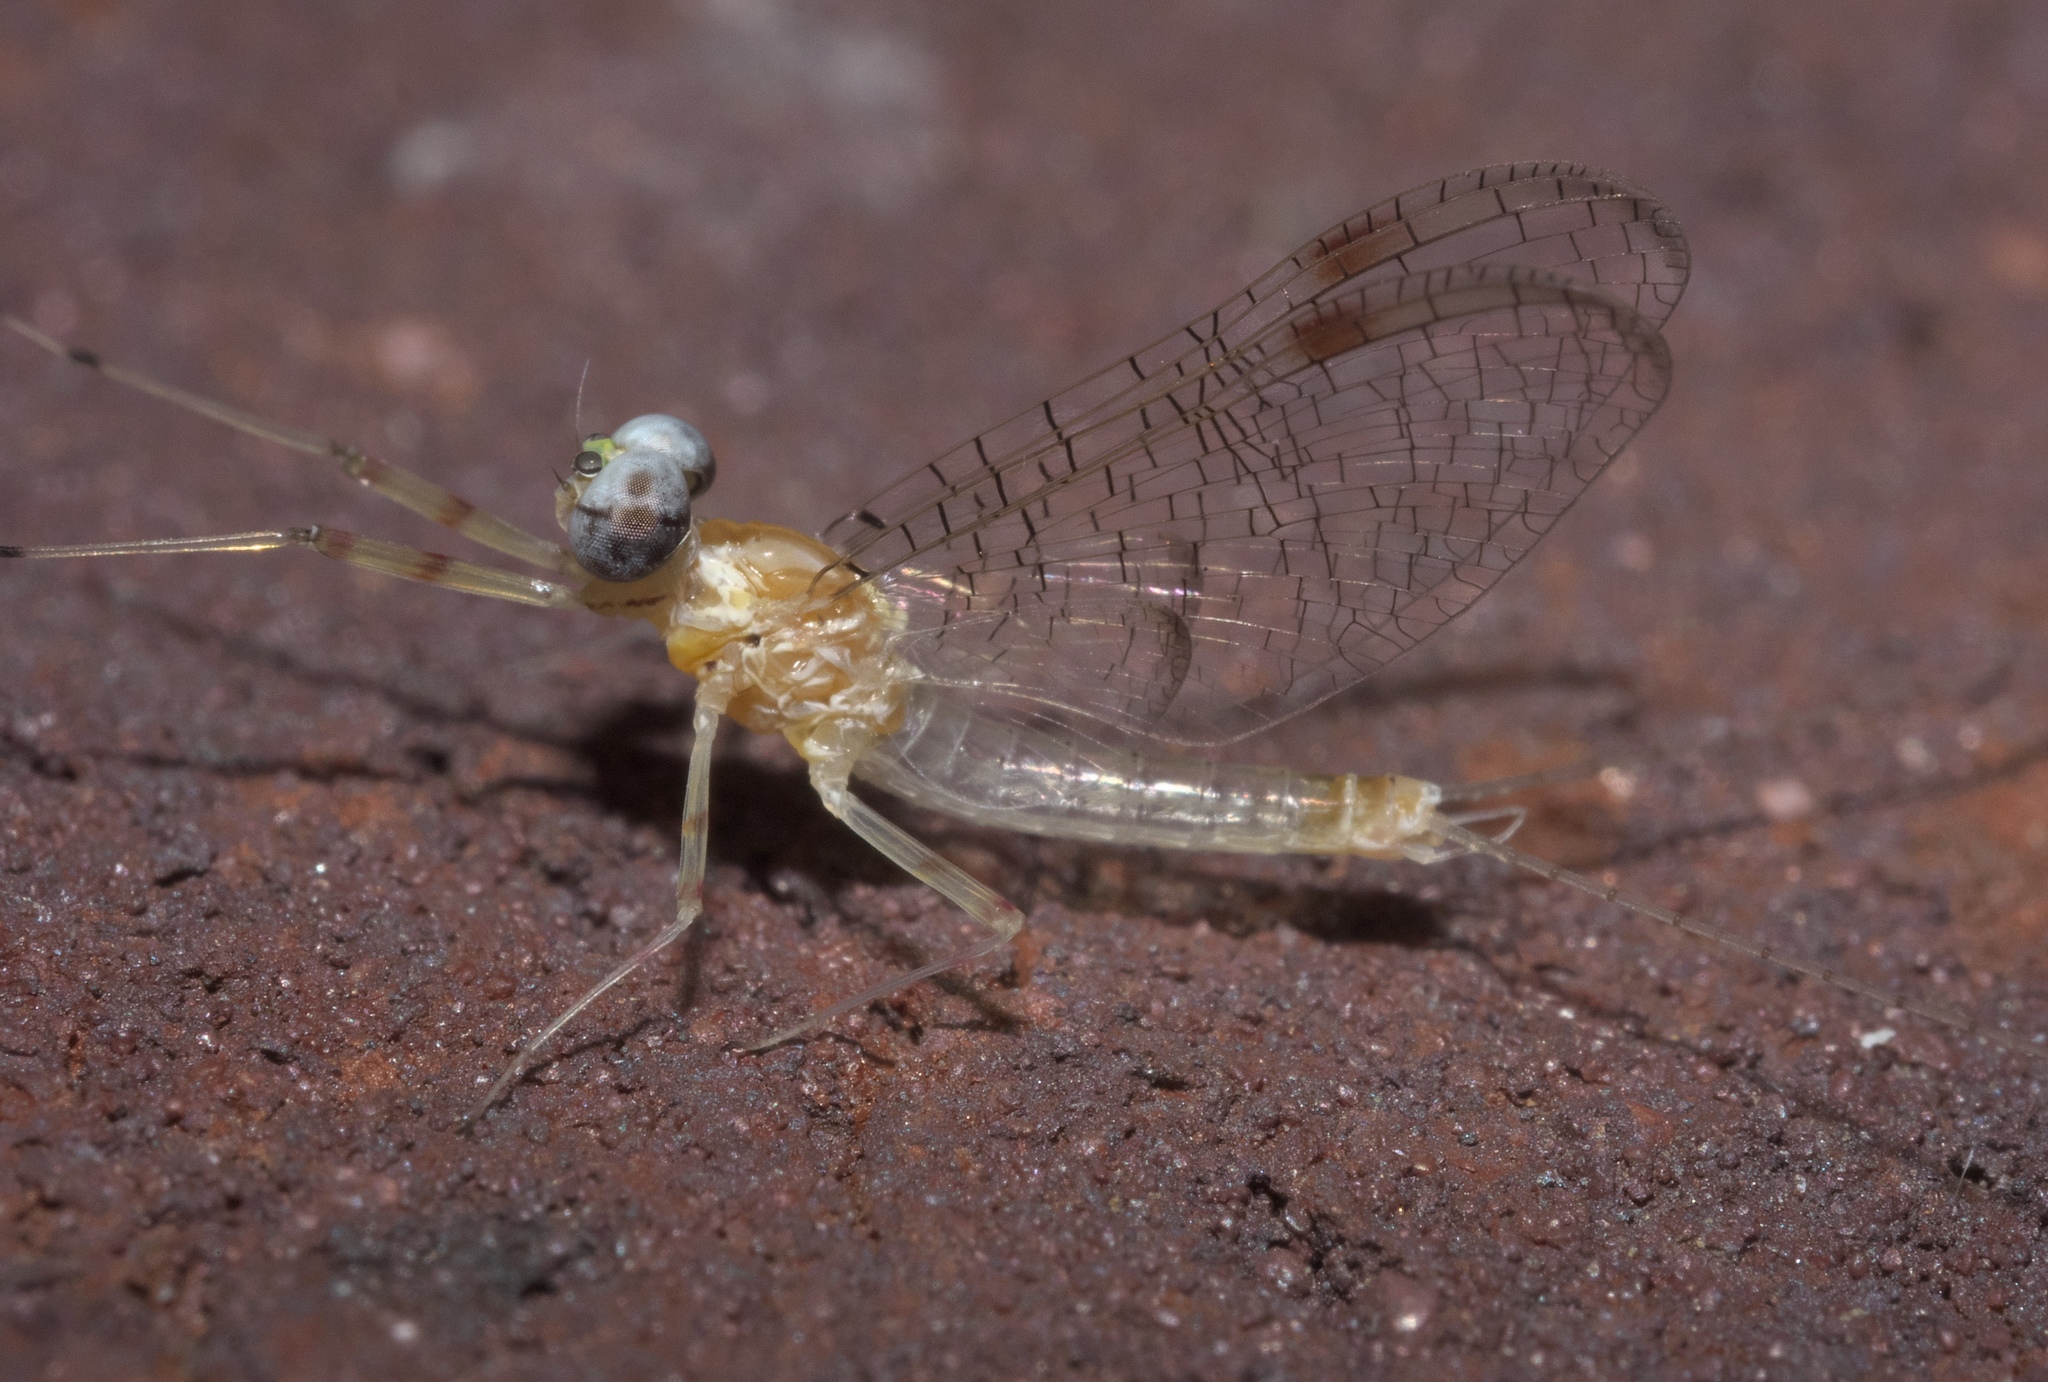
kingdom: Animalia
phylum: Arthropoda
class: Insecta
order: Ephemeroptera
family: Heptageniidae
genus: Stenonema
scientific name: Stenonema femoratum
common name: Dark cahill
